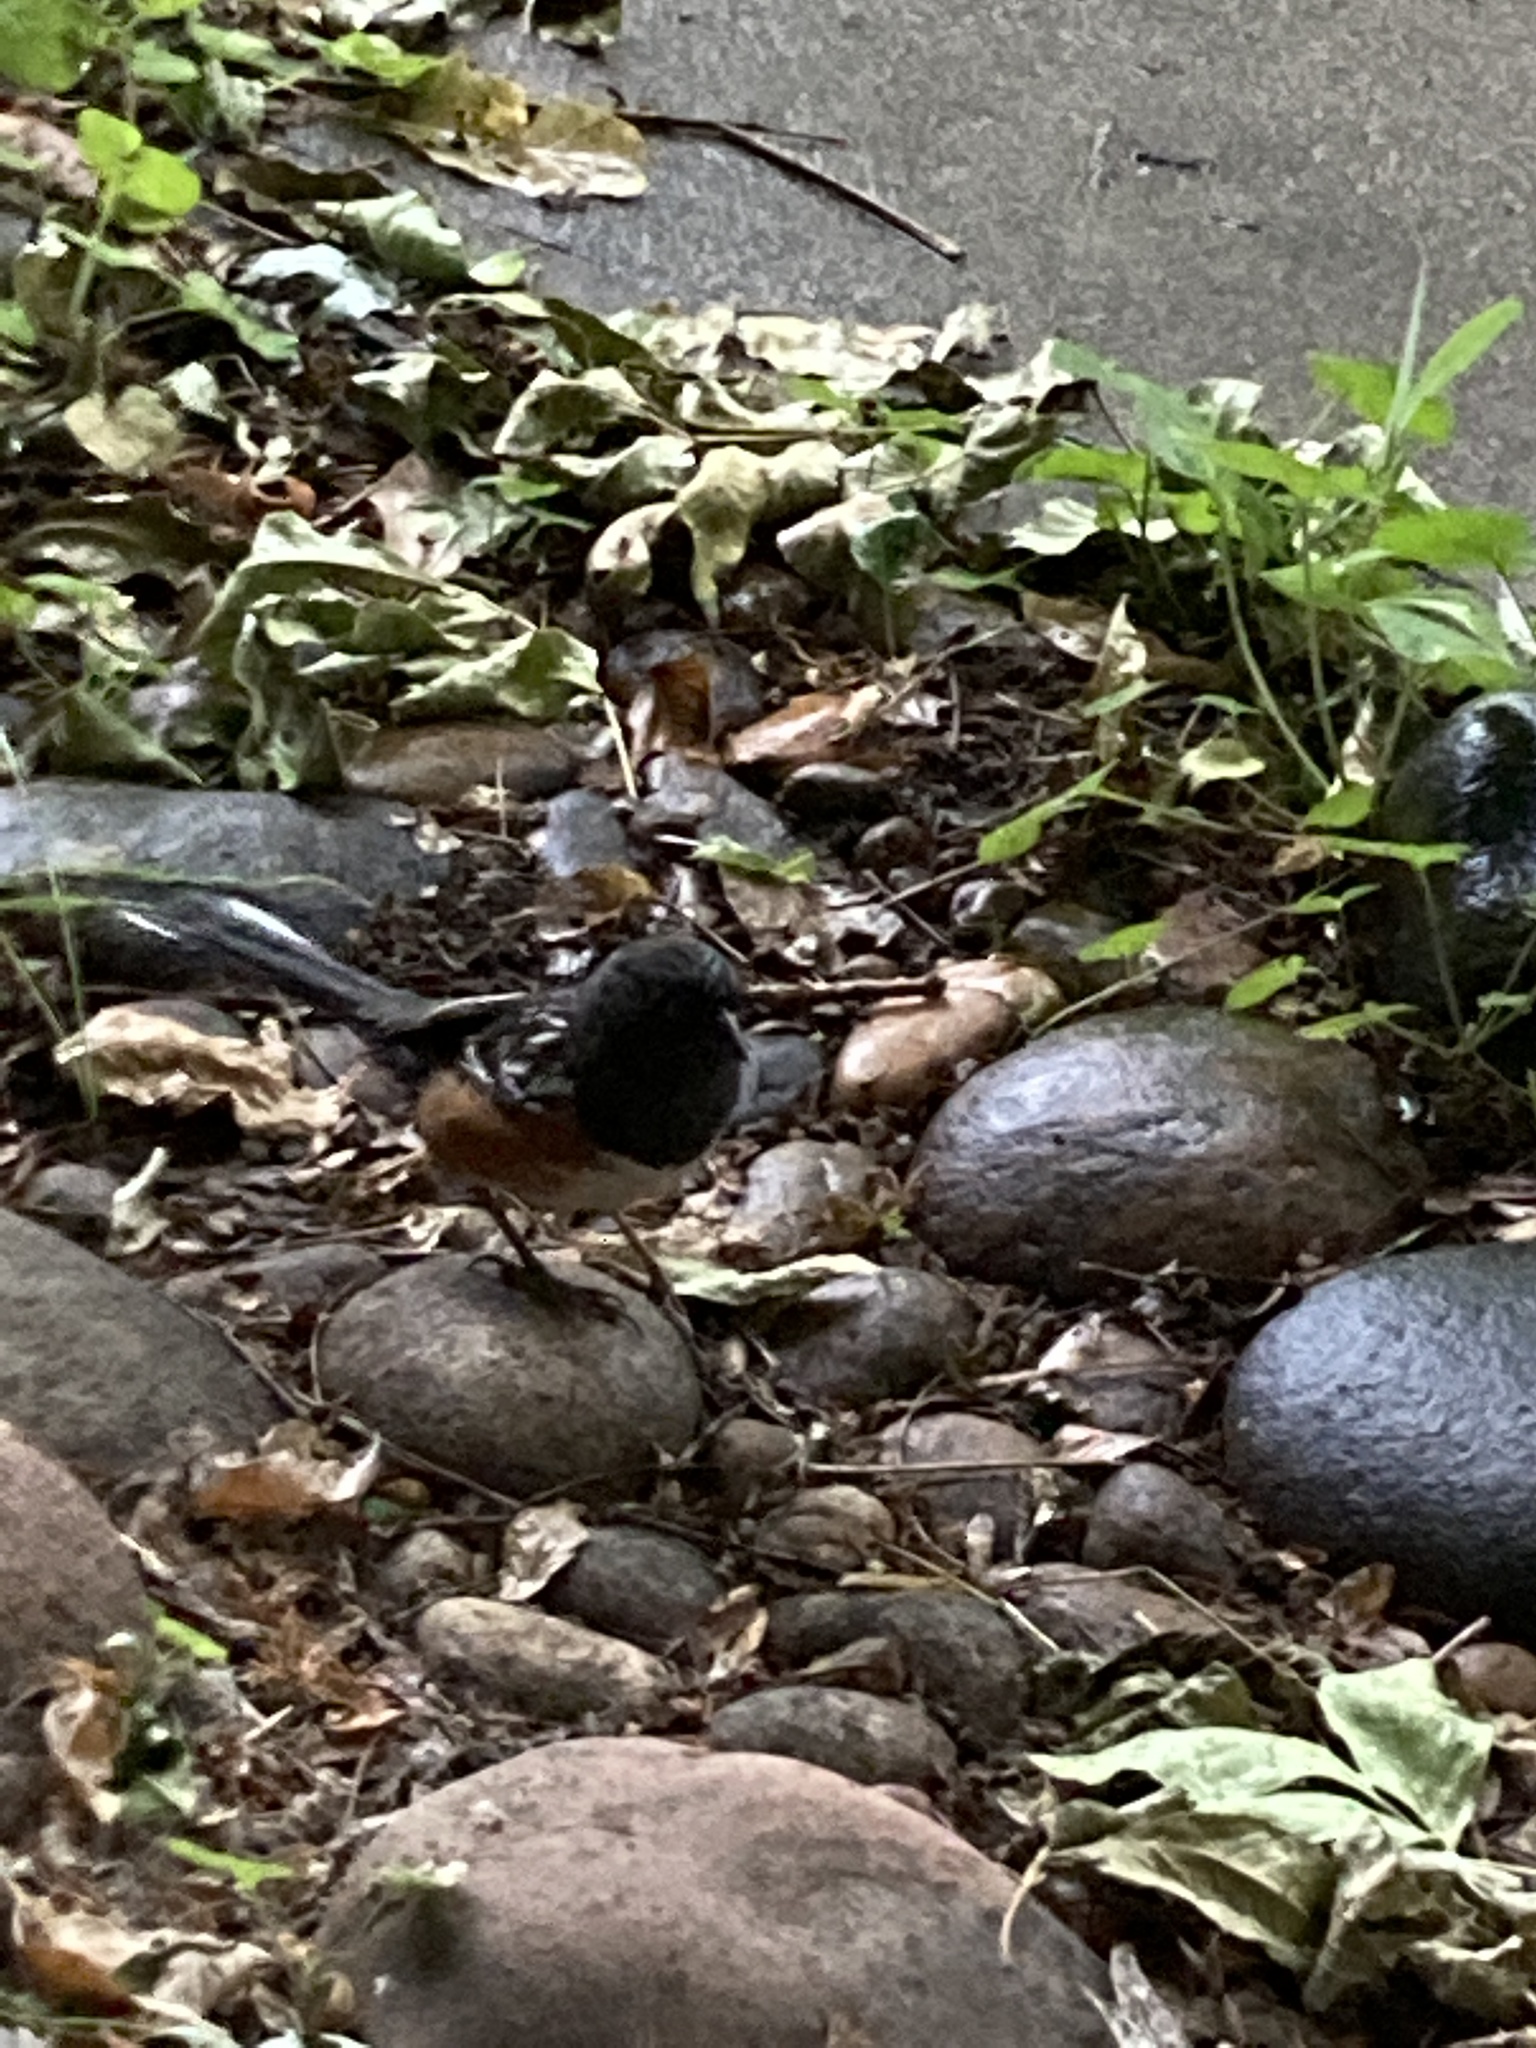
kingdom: Animalia
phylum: Chordata
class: Aves
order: Passeriformes
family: Passerellidae
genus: Pipilo
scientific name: Pipilo maculatus
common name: Spotted towhee
